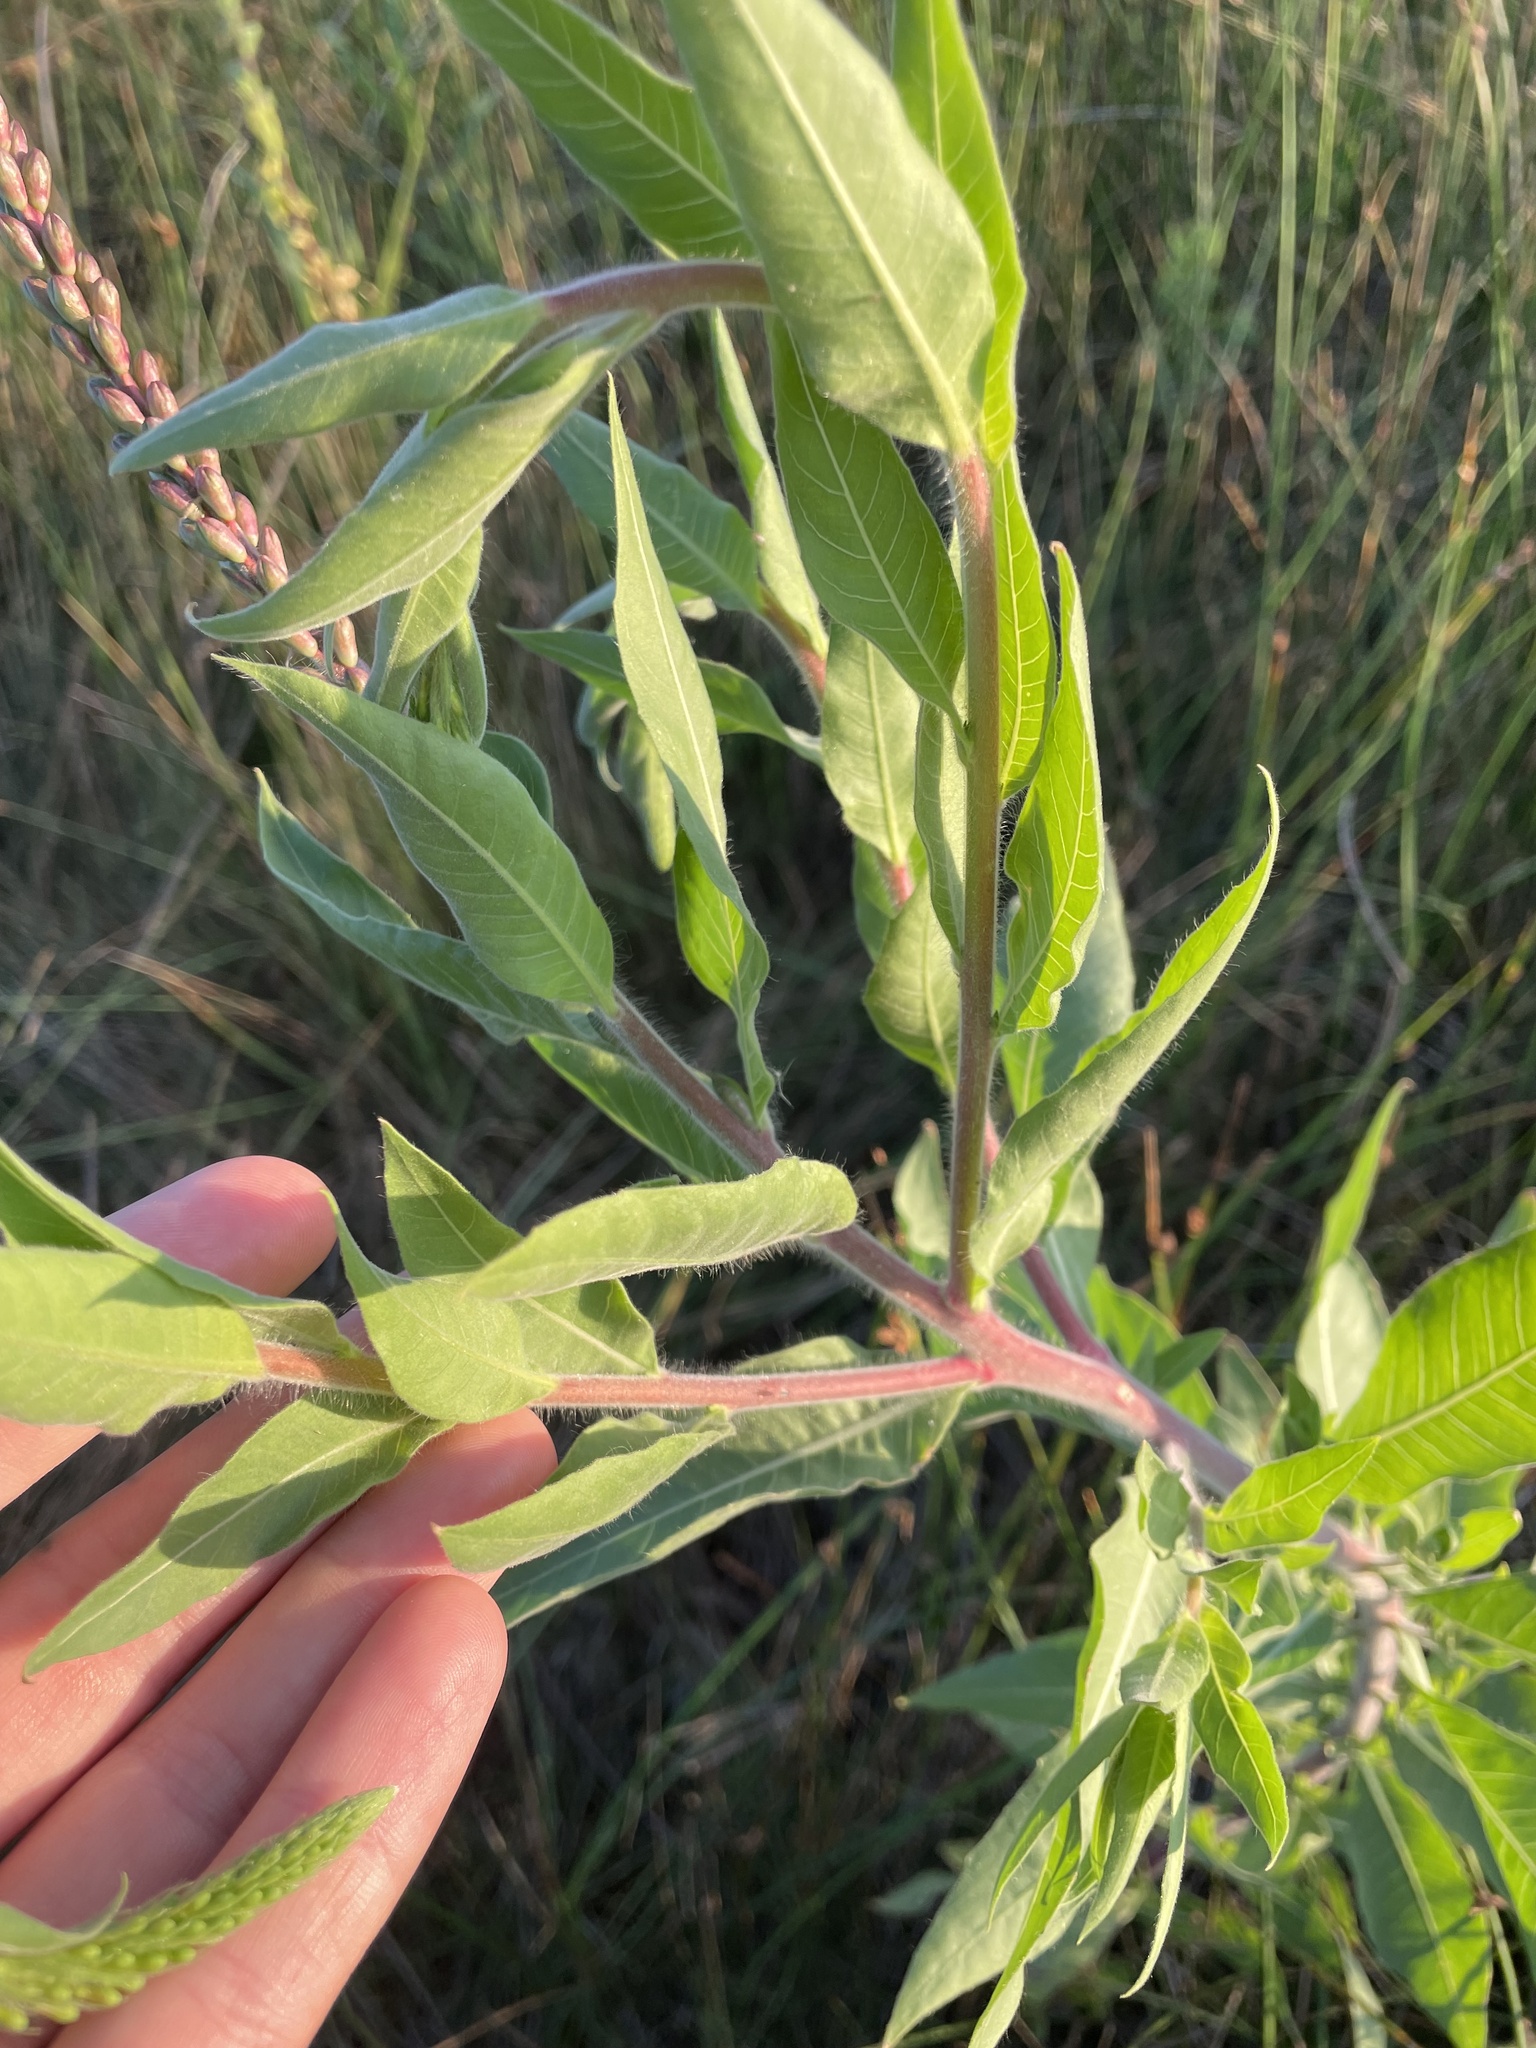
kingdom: Plantae
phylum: Tracheophyta
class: Magnoliopsida
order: Myrtales
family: Onagraceae
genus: Oenothera
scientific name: Oenothera curtiflora
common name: Velvetweed
